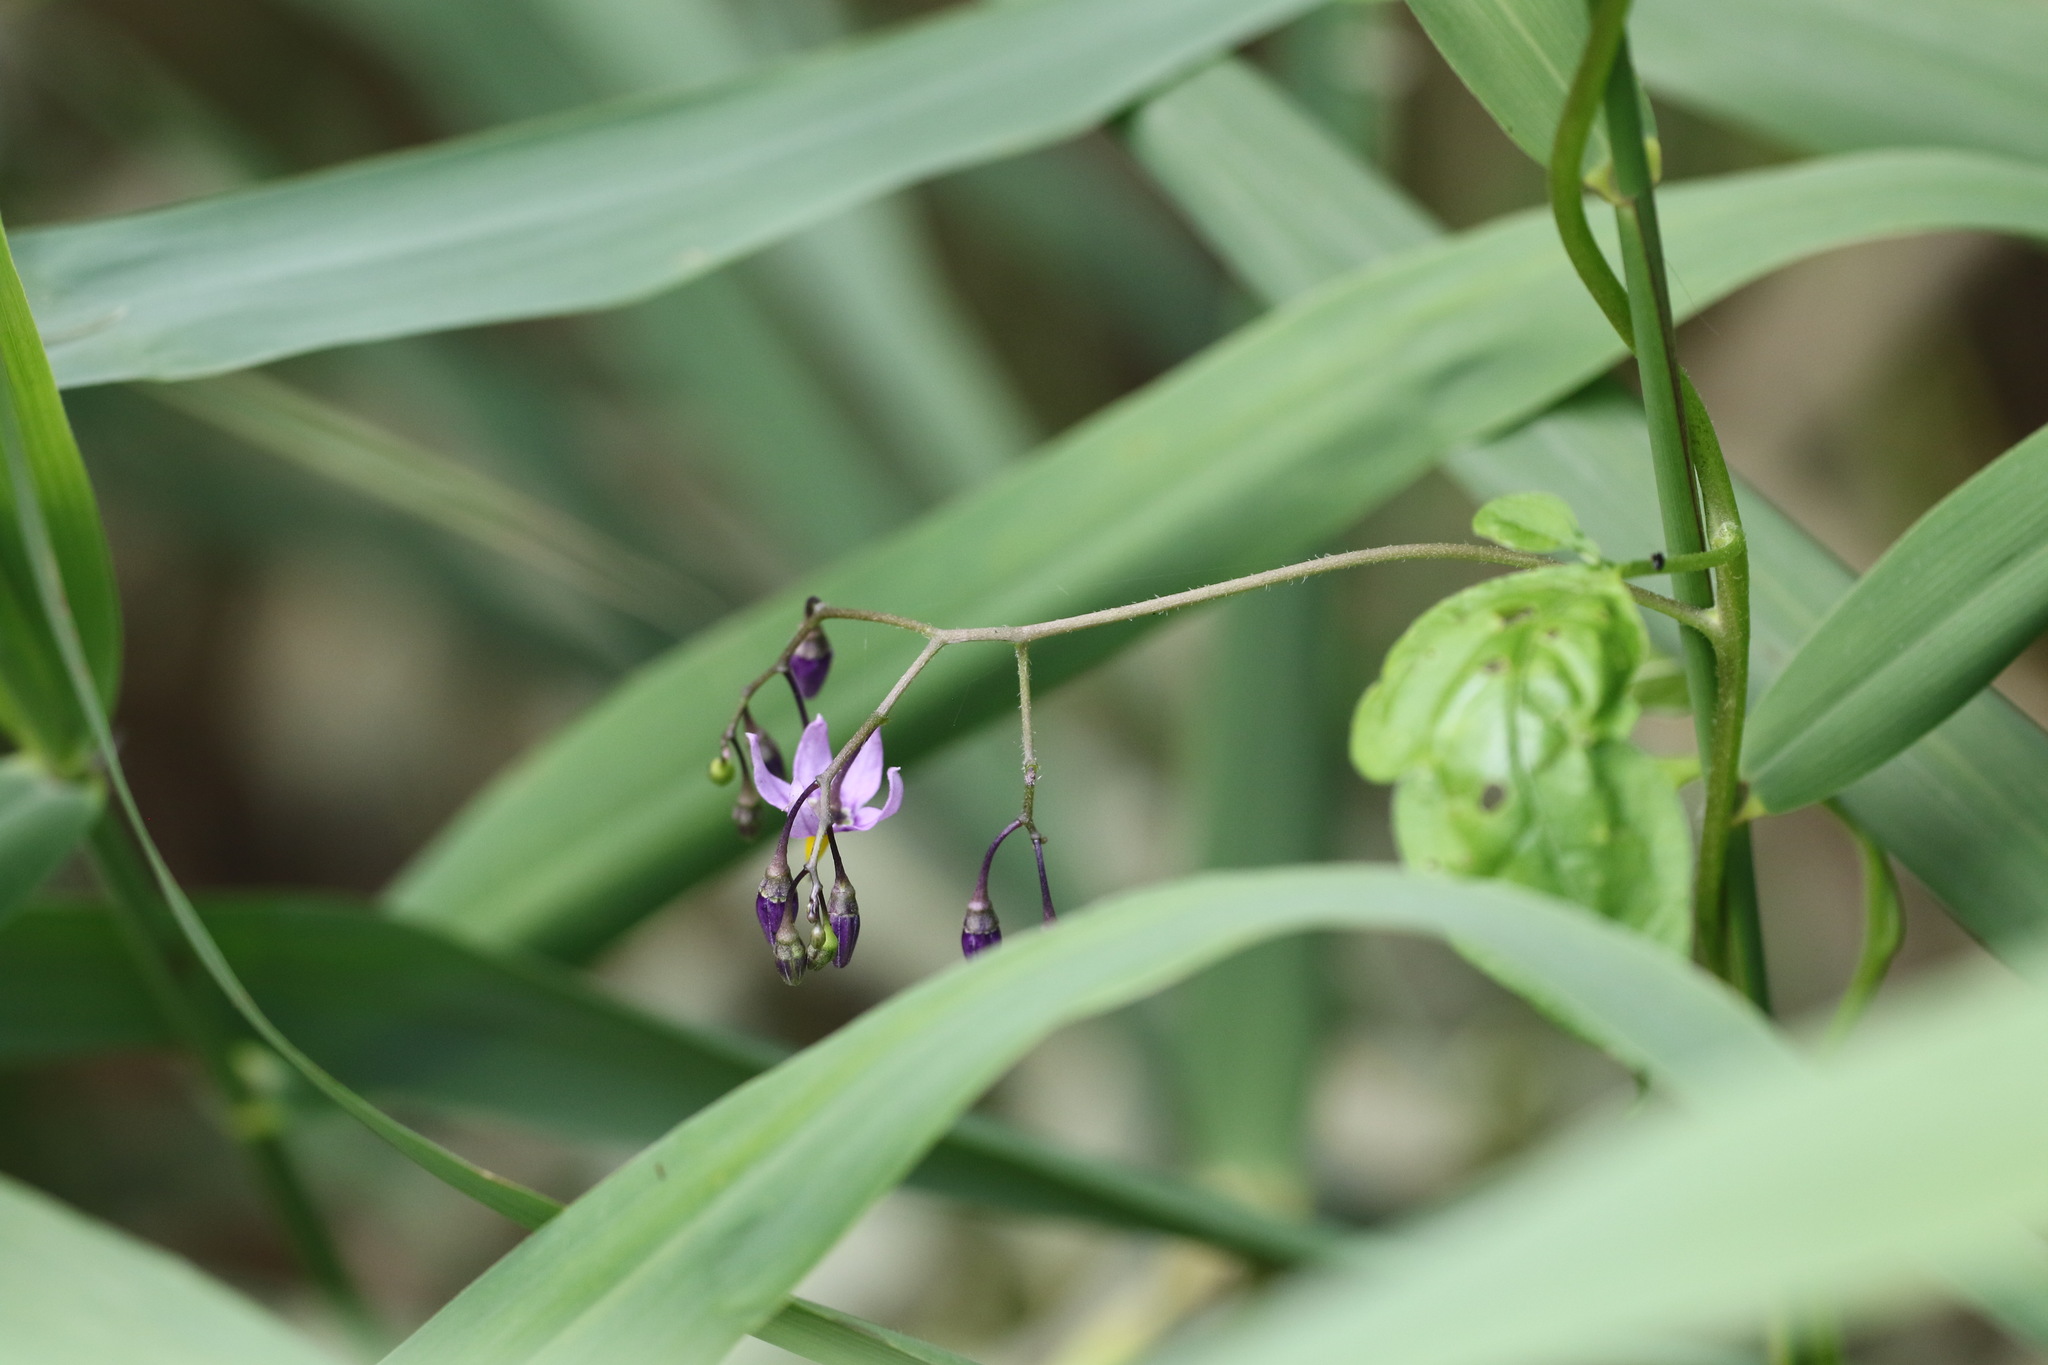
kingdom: Plantae
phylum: Tracheophyta
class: Magnoliopsida
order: Solanales
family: Solanaceae
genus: Solanum
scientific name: Solanum dulcamara
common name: Climbing nightshade
